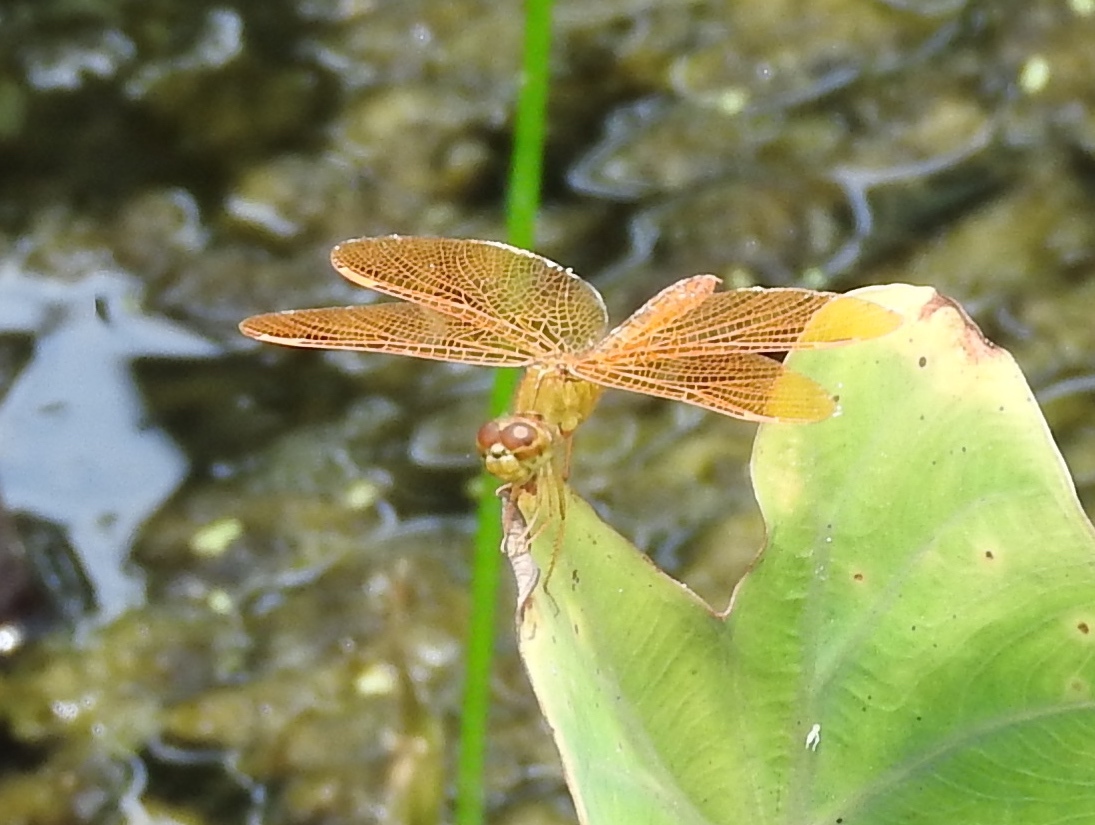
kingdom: Animalia
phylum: Arthropoda
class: Insecta
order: Odonata
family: Libellulidae
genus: Perithemis
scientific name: Perithemis
